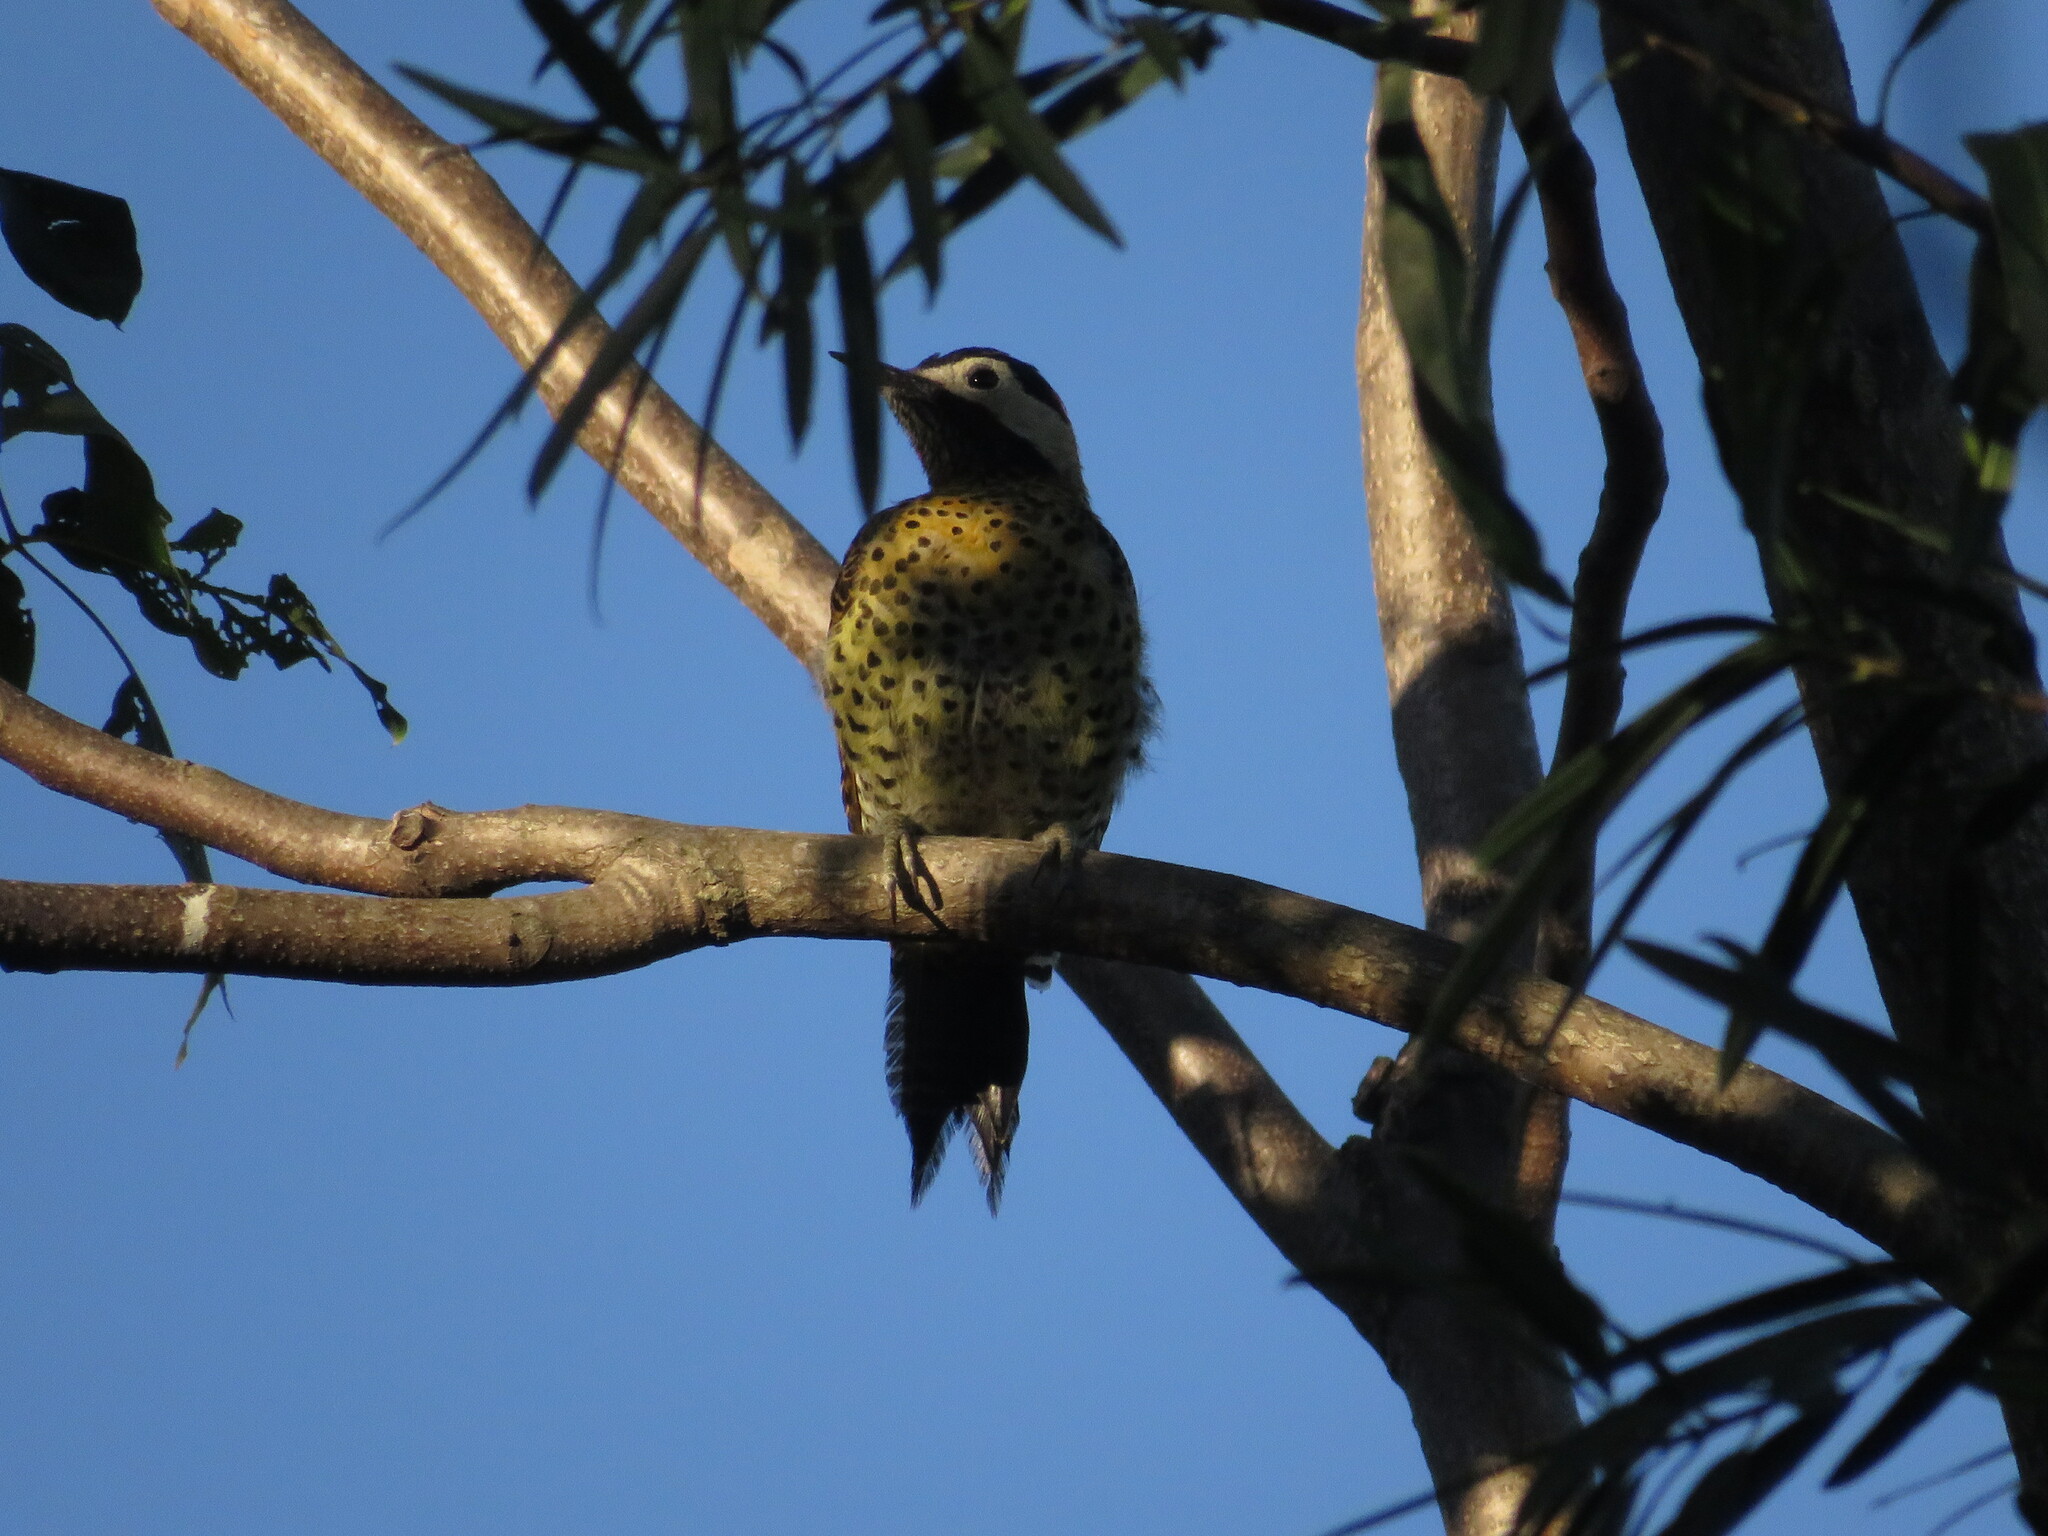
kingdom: Animalia
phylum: Chordata
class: Aves
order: Piciformes
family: Picidae
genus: Colaptes
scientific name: Colaptes melanochloros
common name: Green-barred woodpecker
